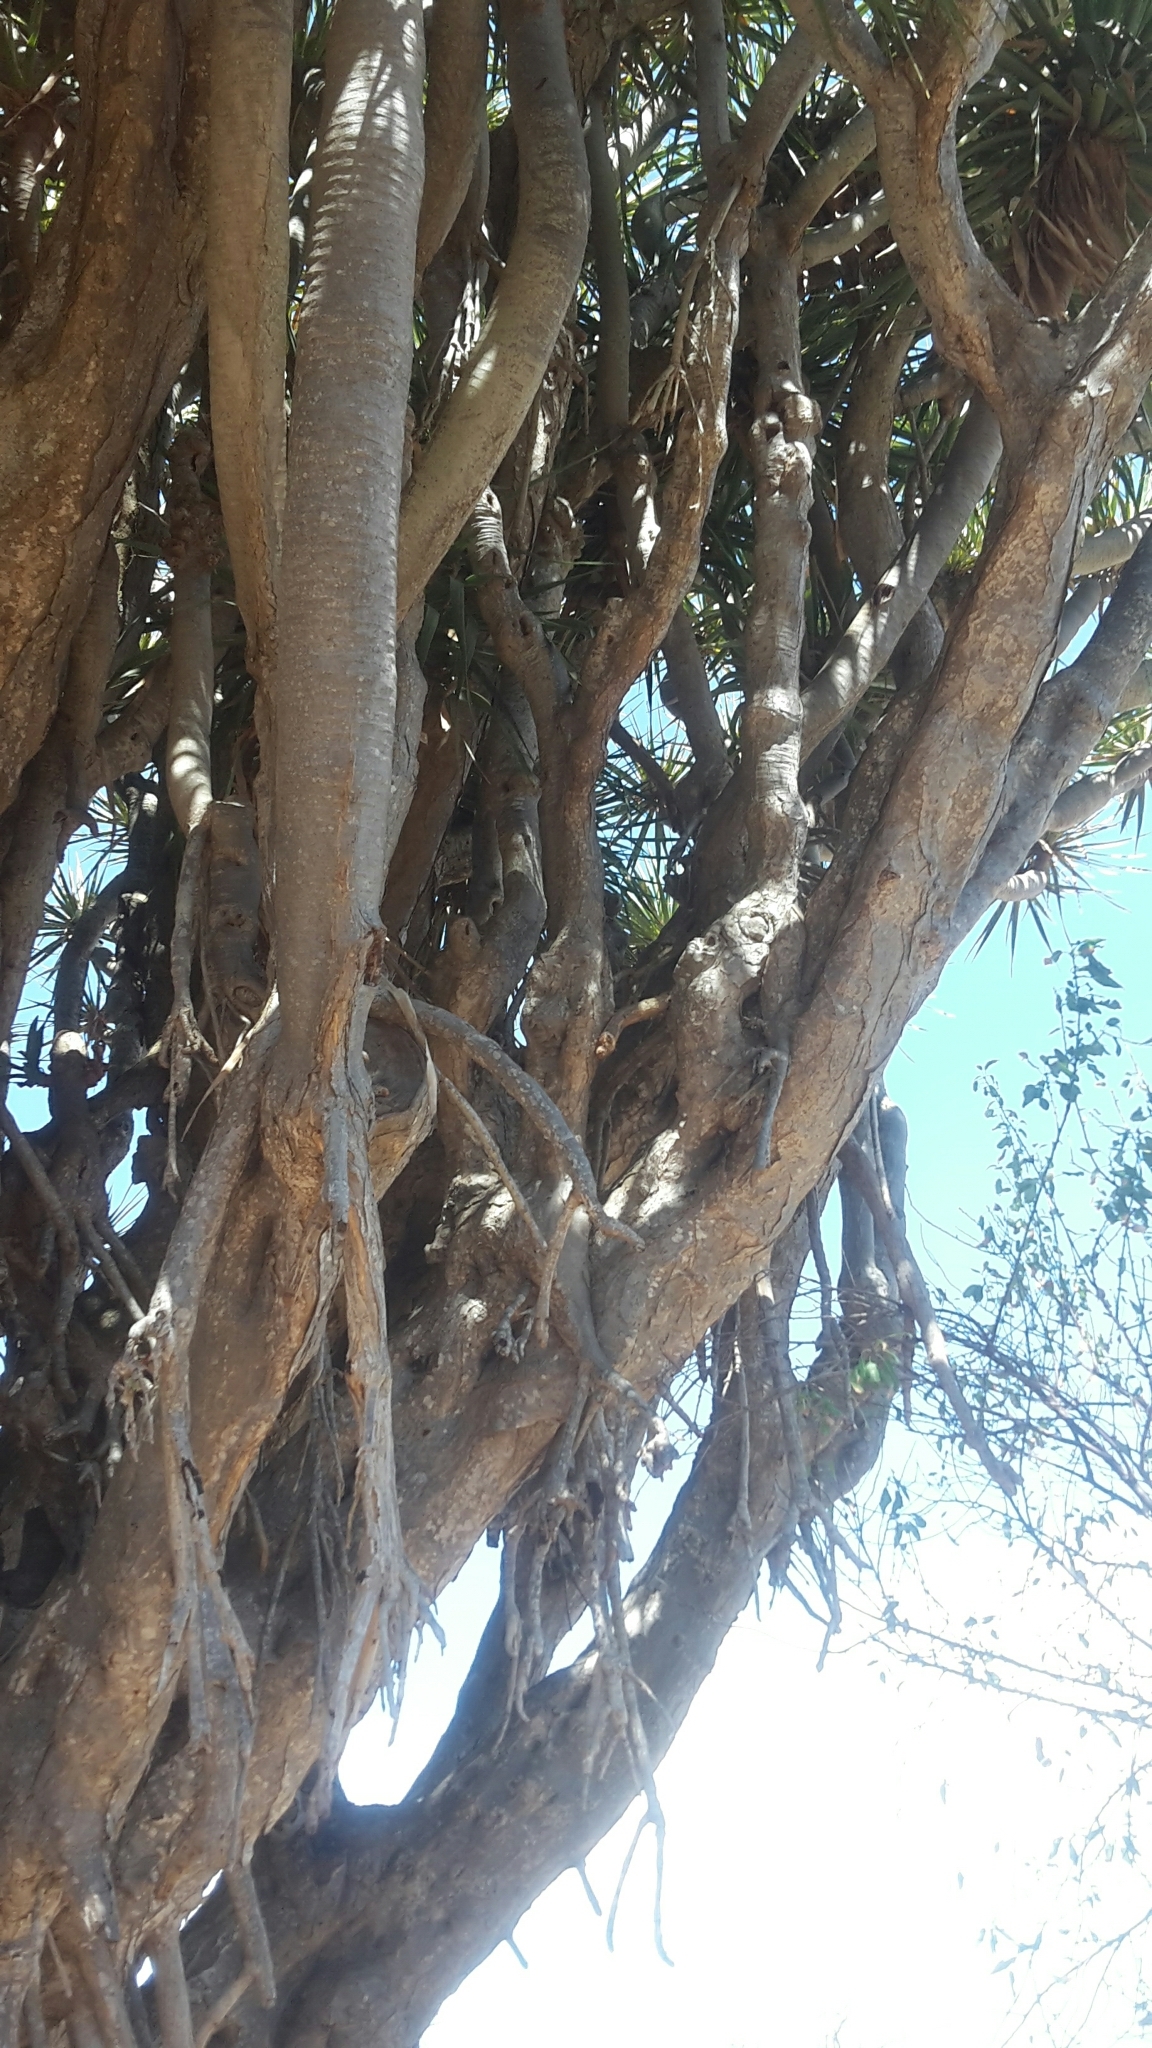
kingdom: Plantae
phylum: Tracheophyta
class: Liliopsida
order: Asparagales
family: Asparagaceae
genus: Dracaena
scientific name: Dracaena draco
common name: Canary island dragon tree
